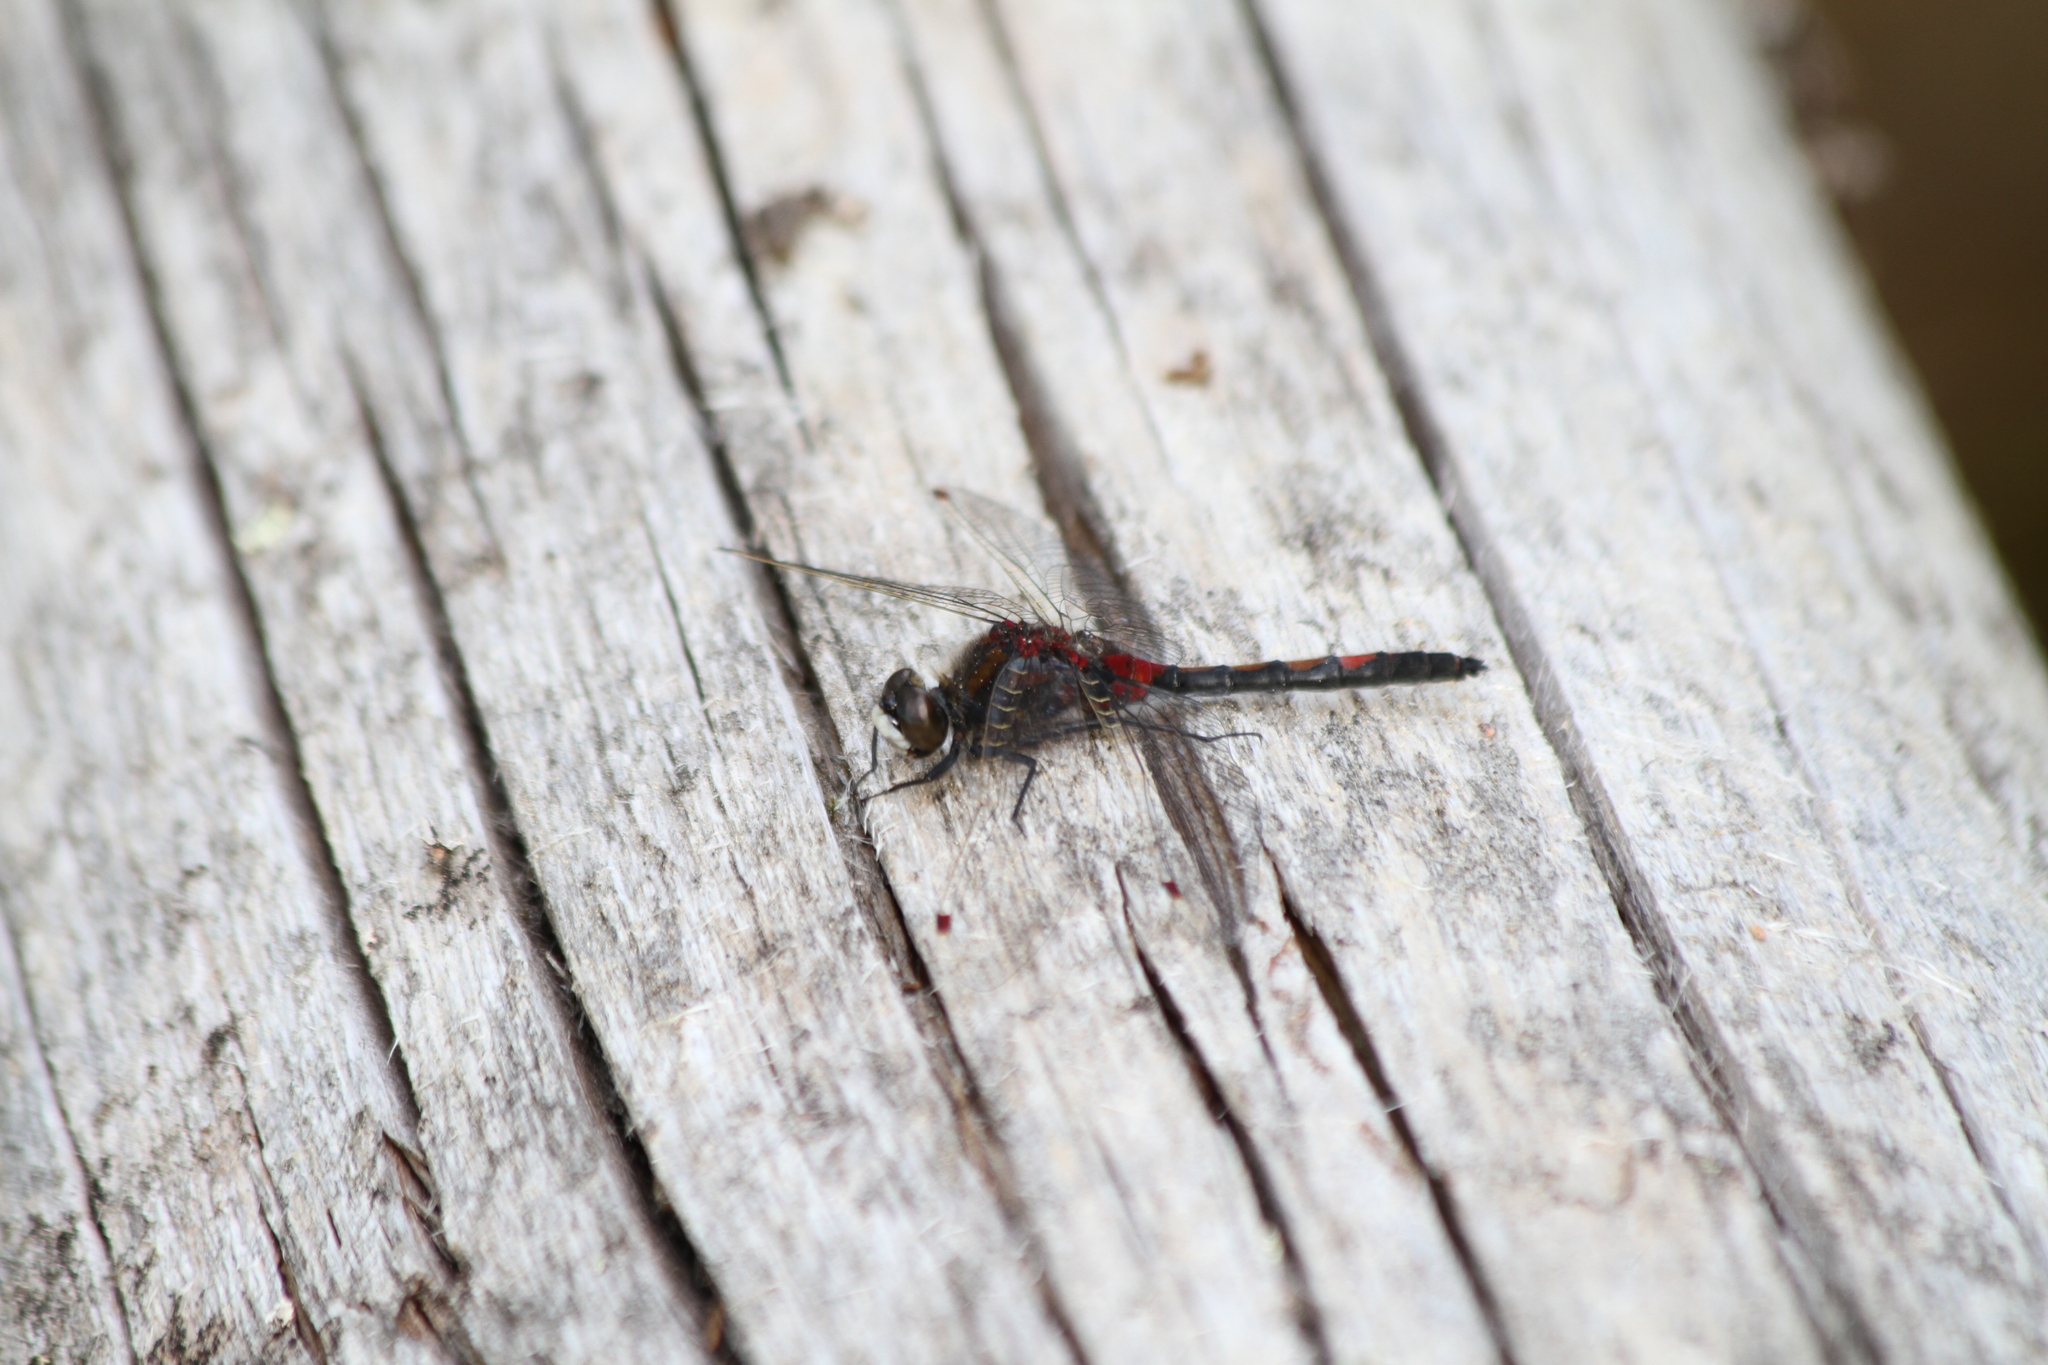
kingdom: Animalia
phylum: Arthropoda
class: Insecta
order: Odonata
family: Libellulidae
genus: Leucorrhinia
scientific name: Leucorrhinia rubicunda
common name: Ruby whiteface
